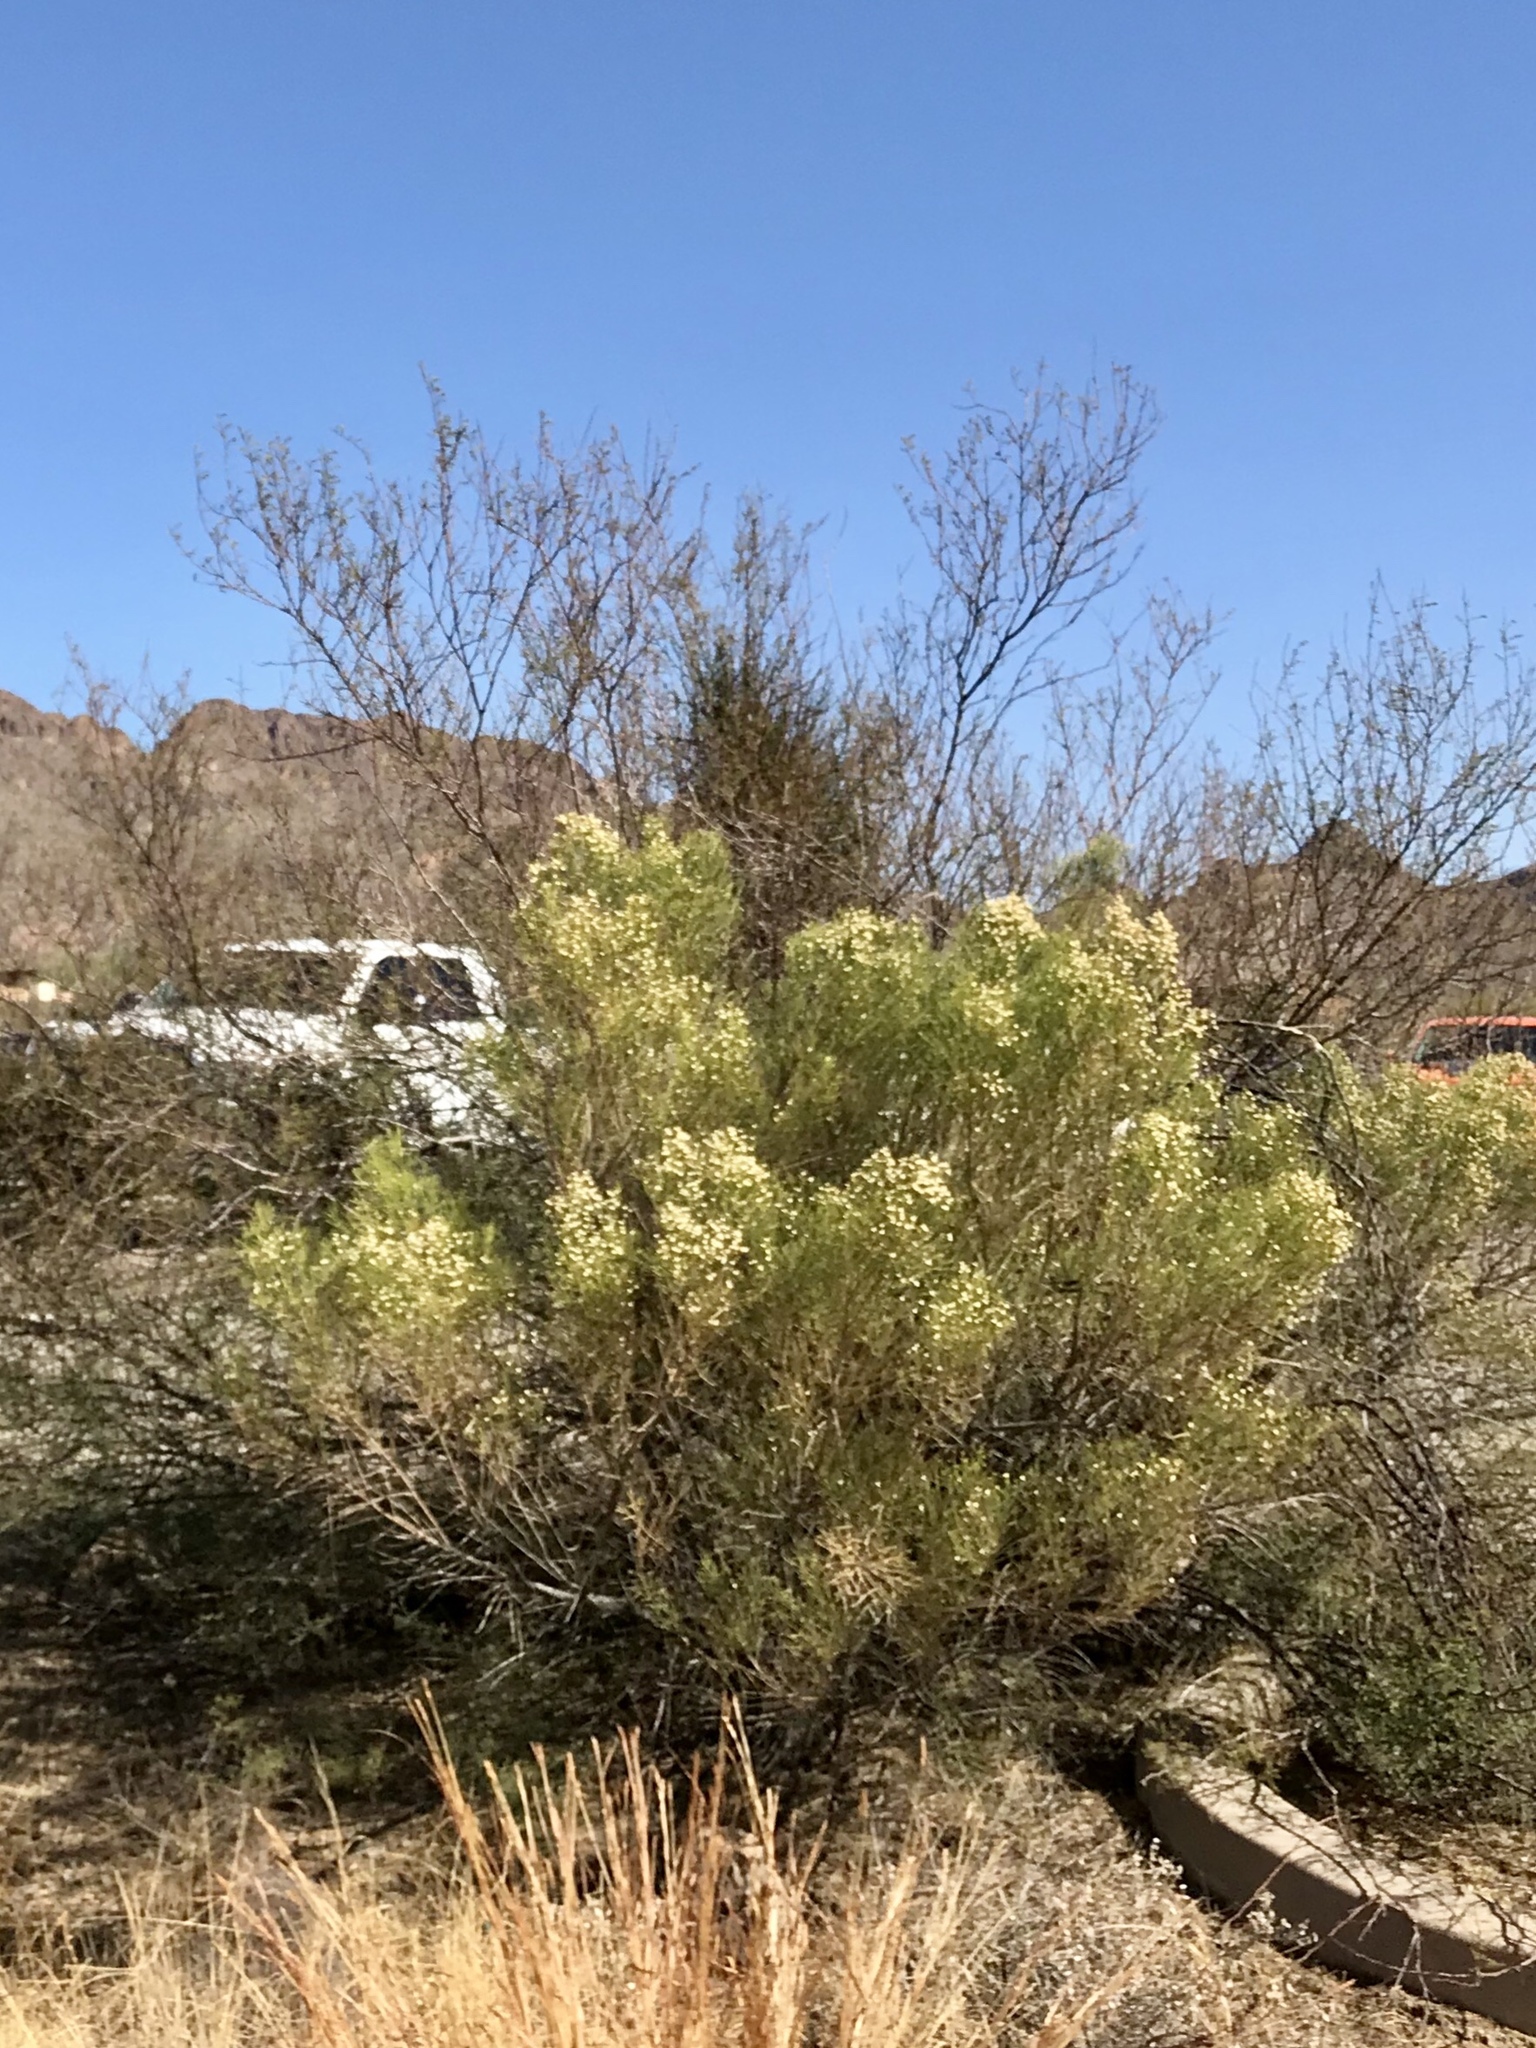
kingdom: Plantae
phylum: Tracheophyta
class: Magnoliopsida
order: Asterales
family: Asteraceae
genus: Baccharis
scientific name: Baccharis sarothroides
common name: Desert-broom
